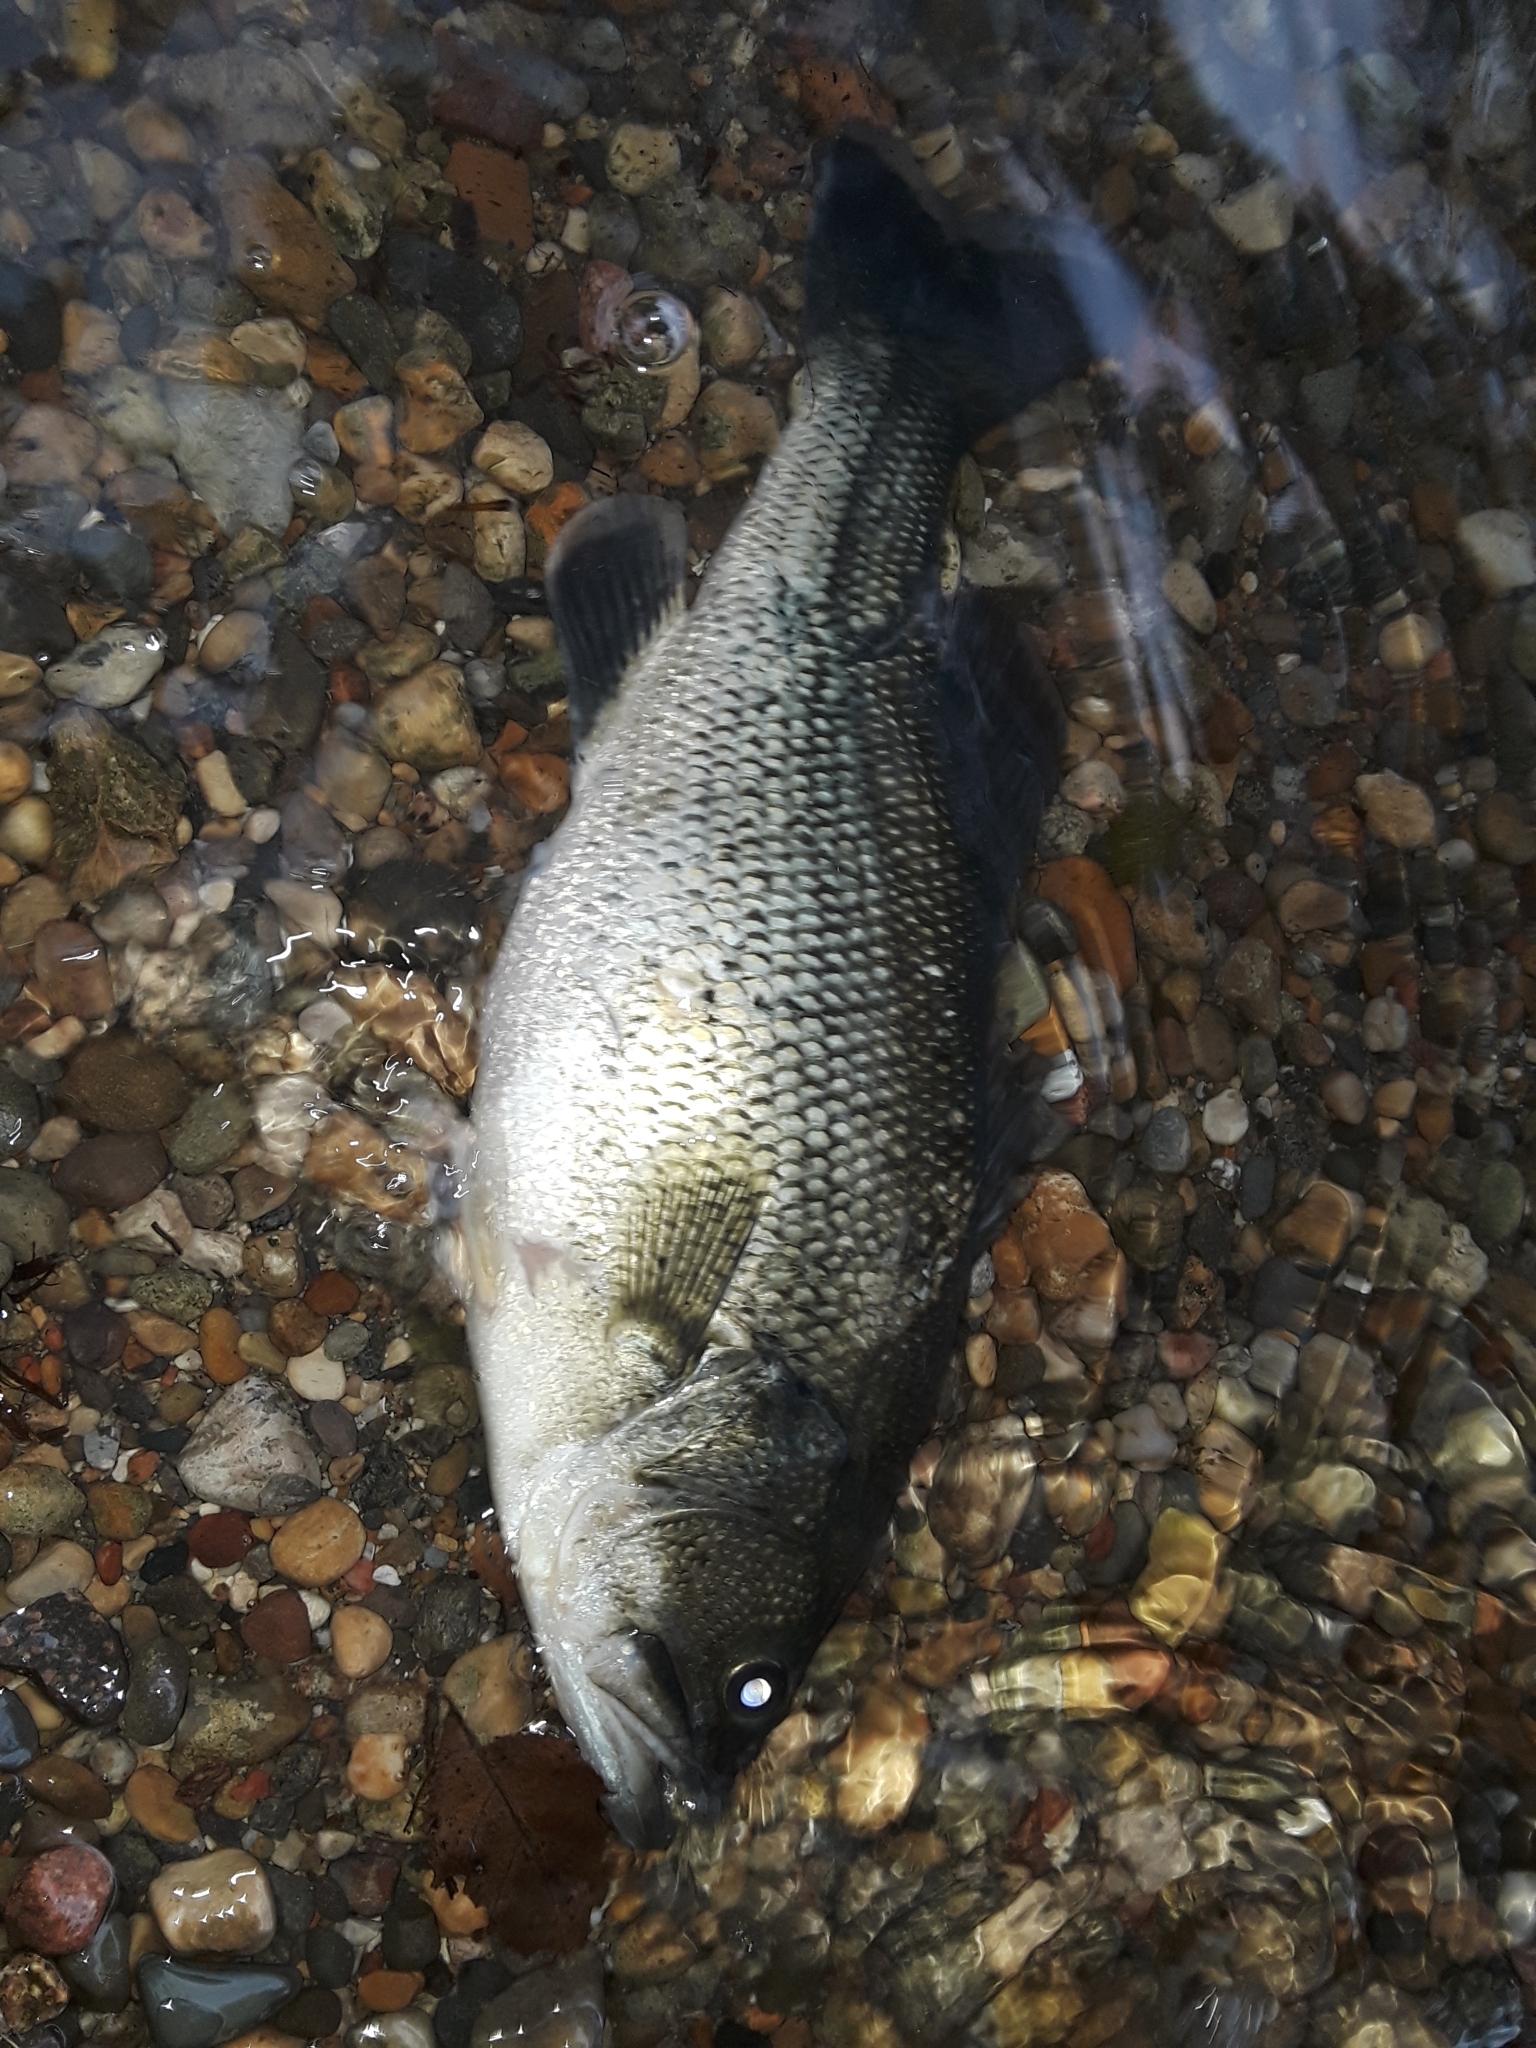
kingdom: Animalia
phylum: Chordata
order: Perciformes
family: Centrarchidae
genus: Micropterus
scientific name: Micropterus
